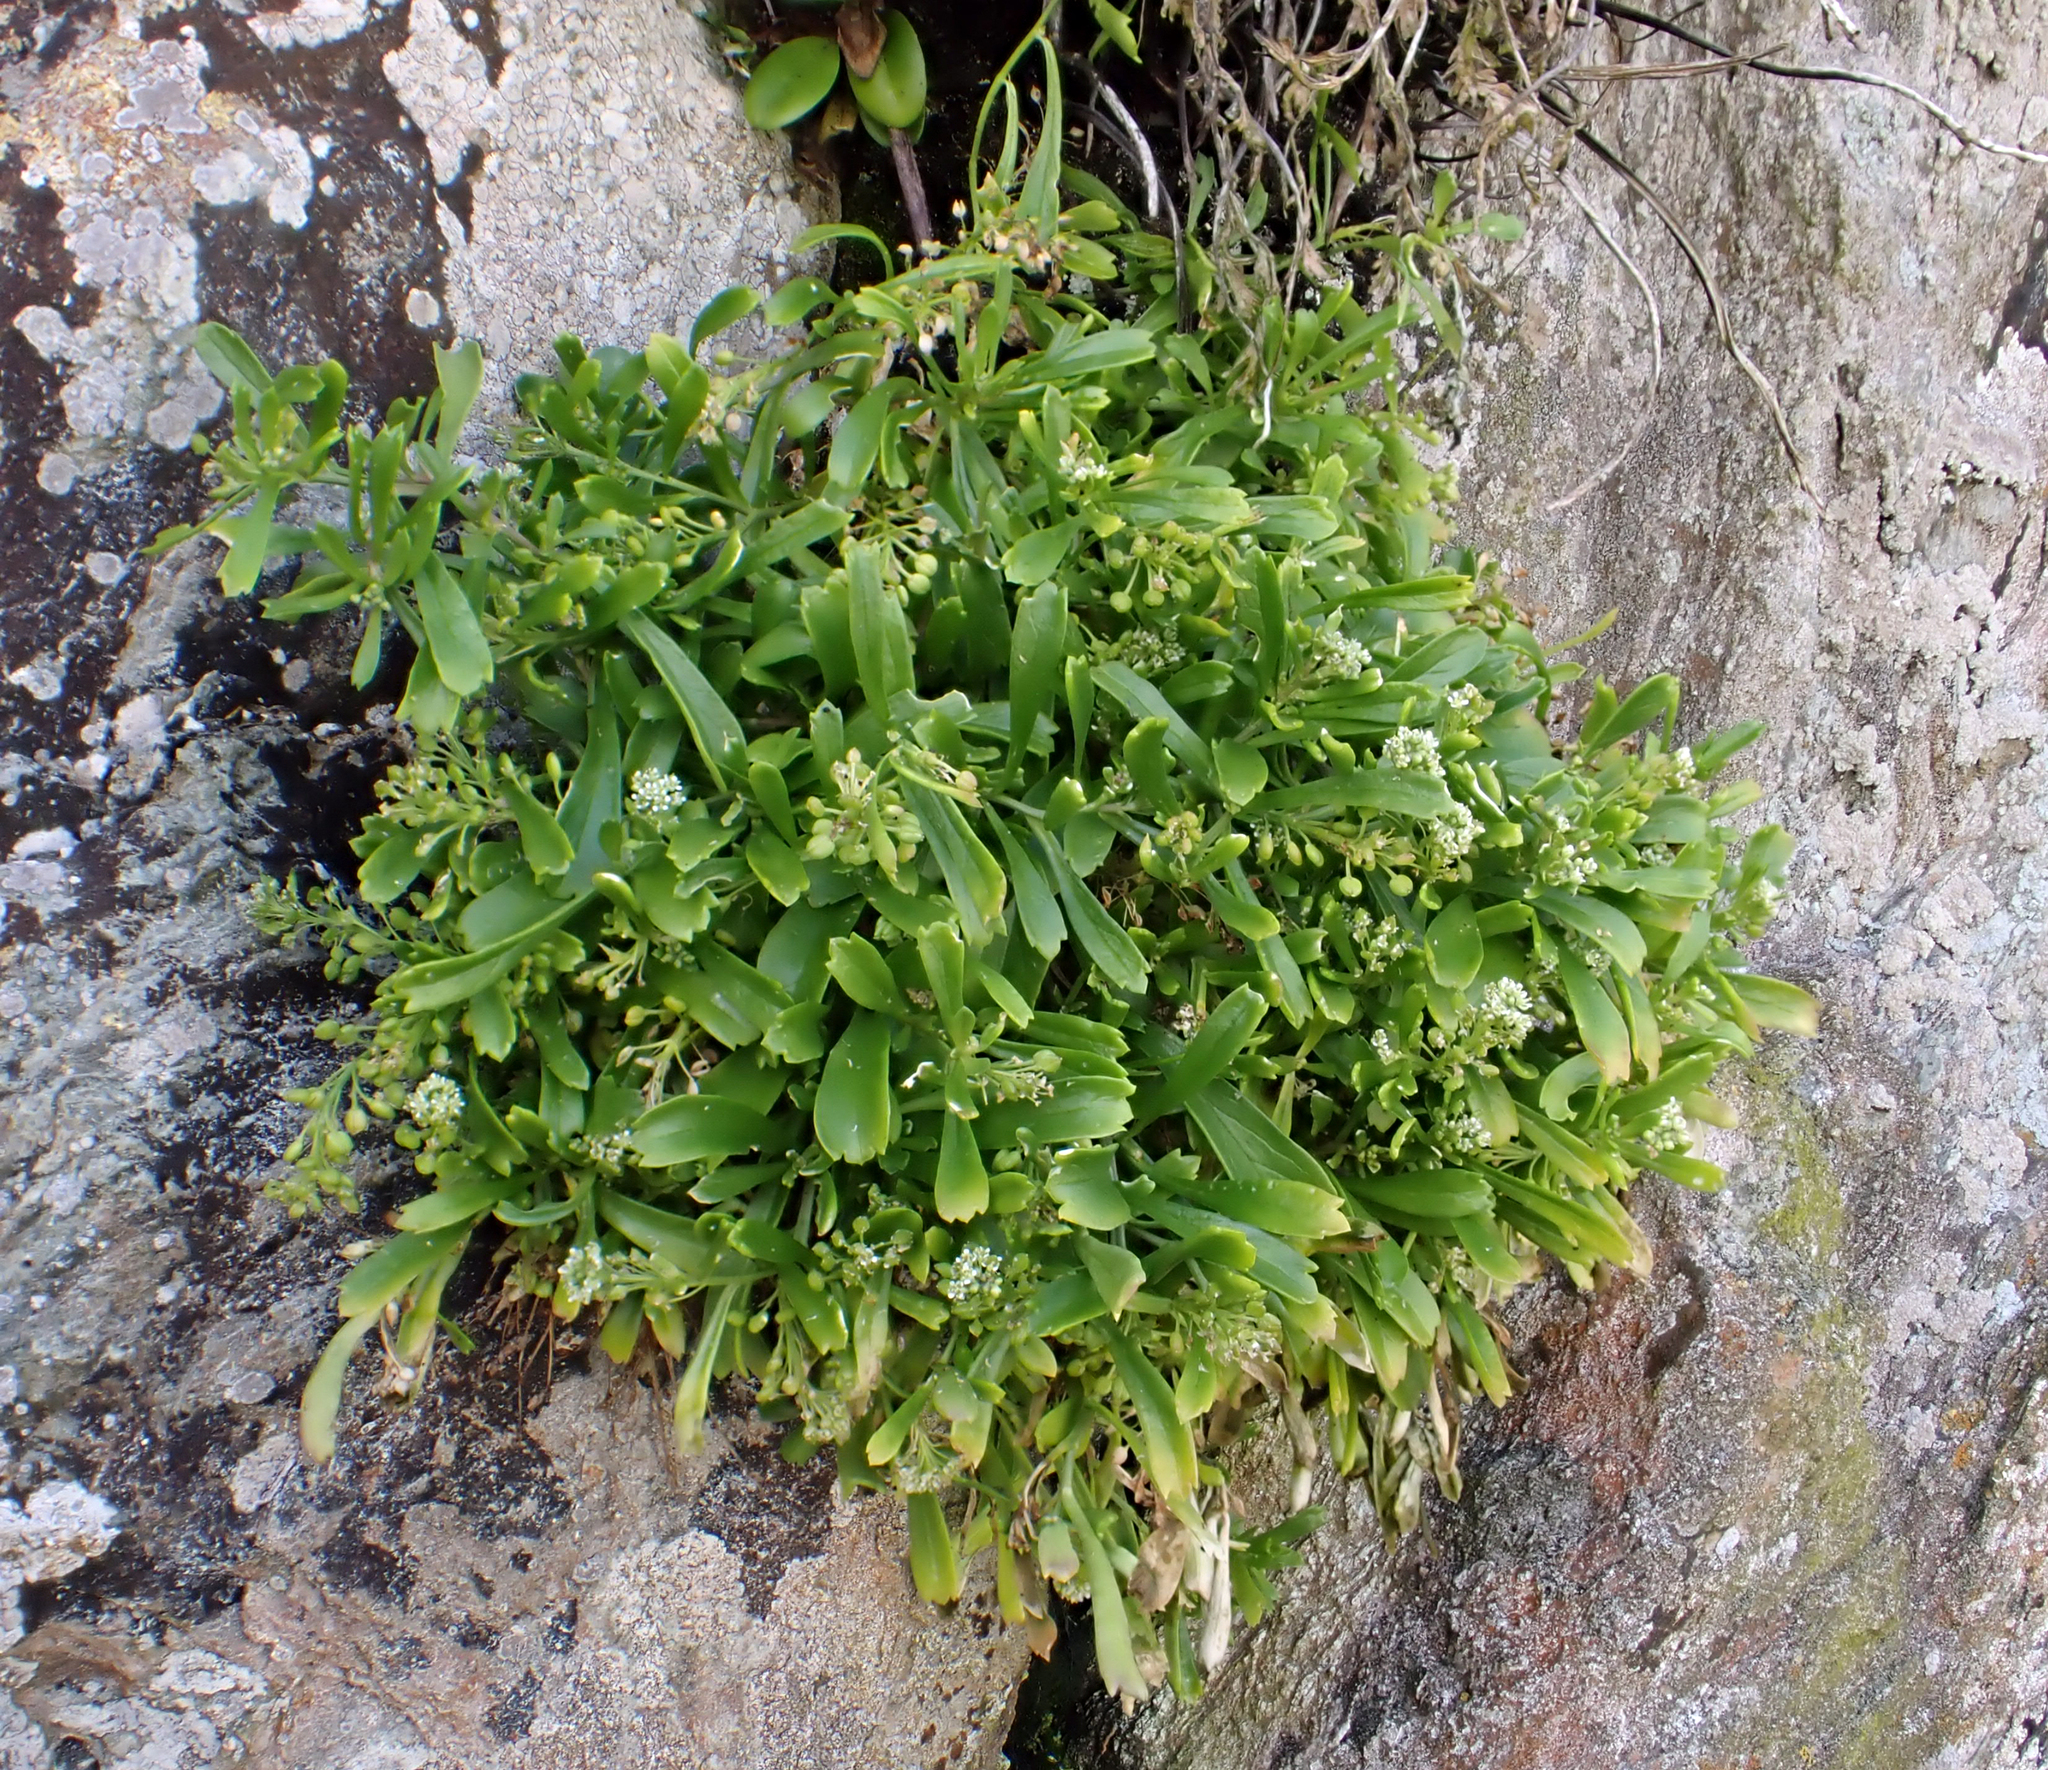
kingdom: Plantae
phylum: Tracheophyta
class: Magnoliopsida
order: Brassicales
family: Brassicaceae
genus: Lepidium
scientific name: Lepidium oligodontum
